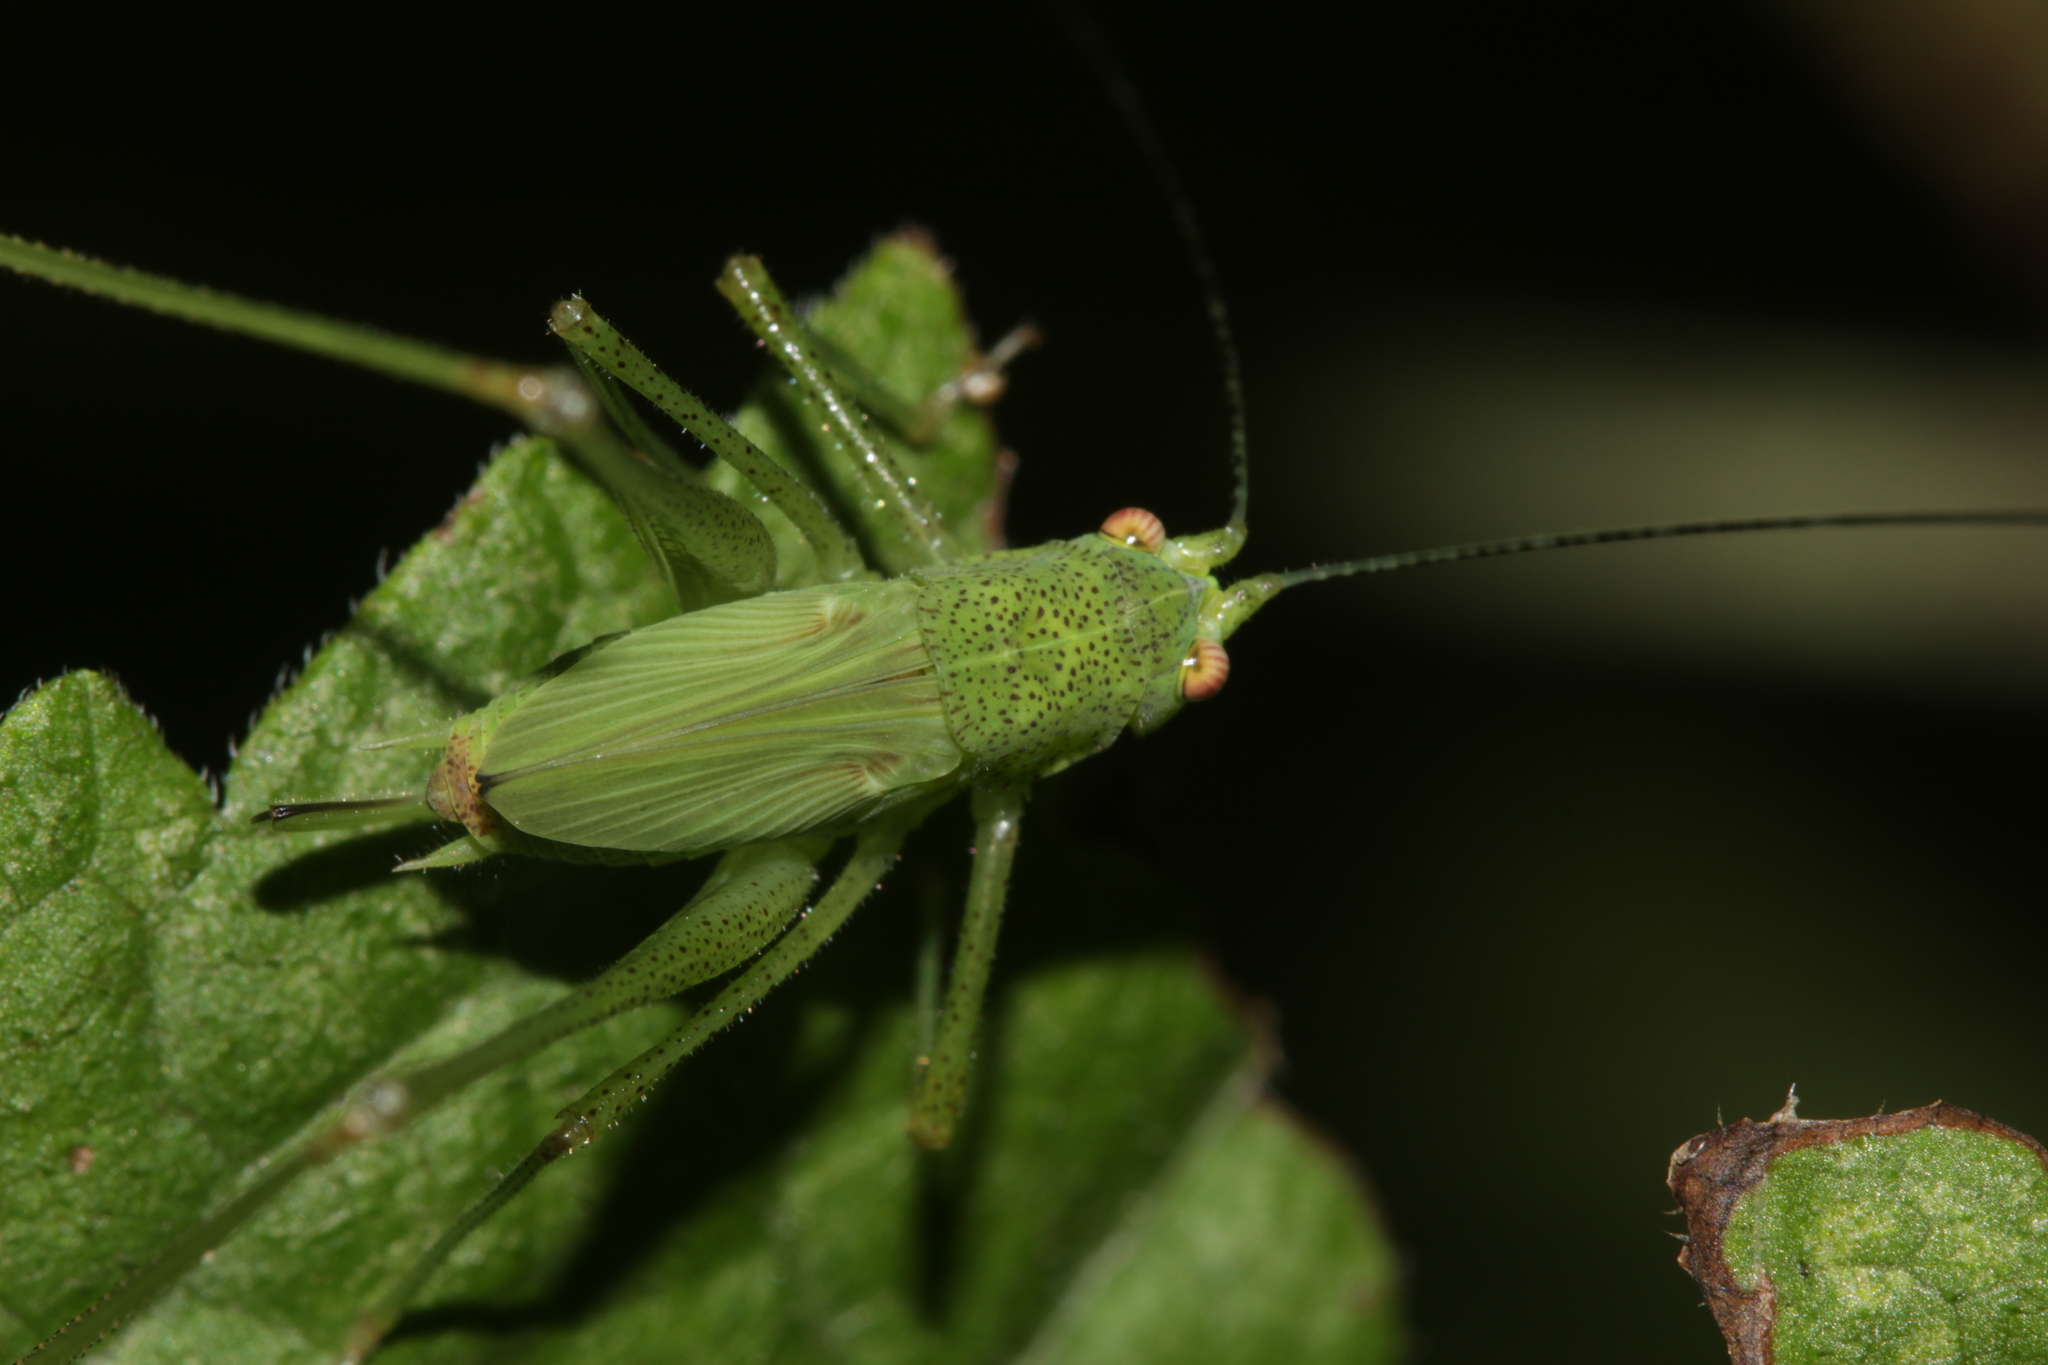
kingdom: Animalia
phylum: Arthropoda
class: Insecta
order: Orthoptera
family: Tettigoniidae
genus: Phaneroptera
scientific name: Phaneroptera nana
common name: Southern sickle bush-cricket
